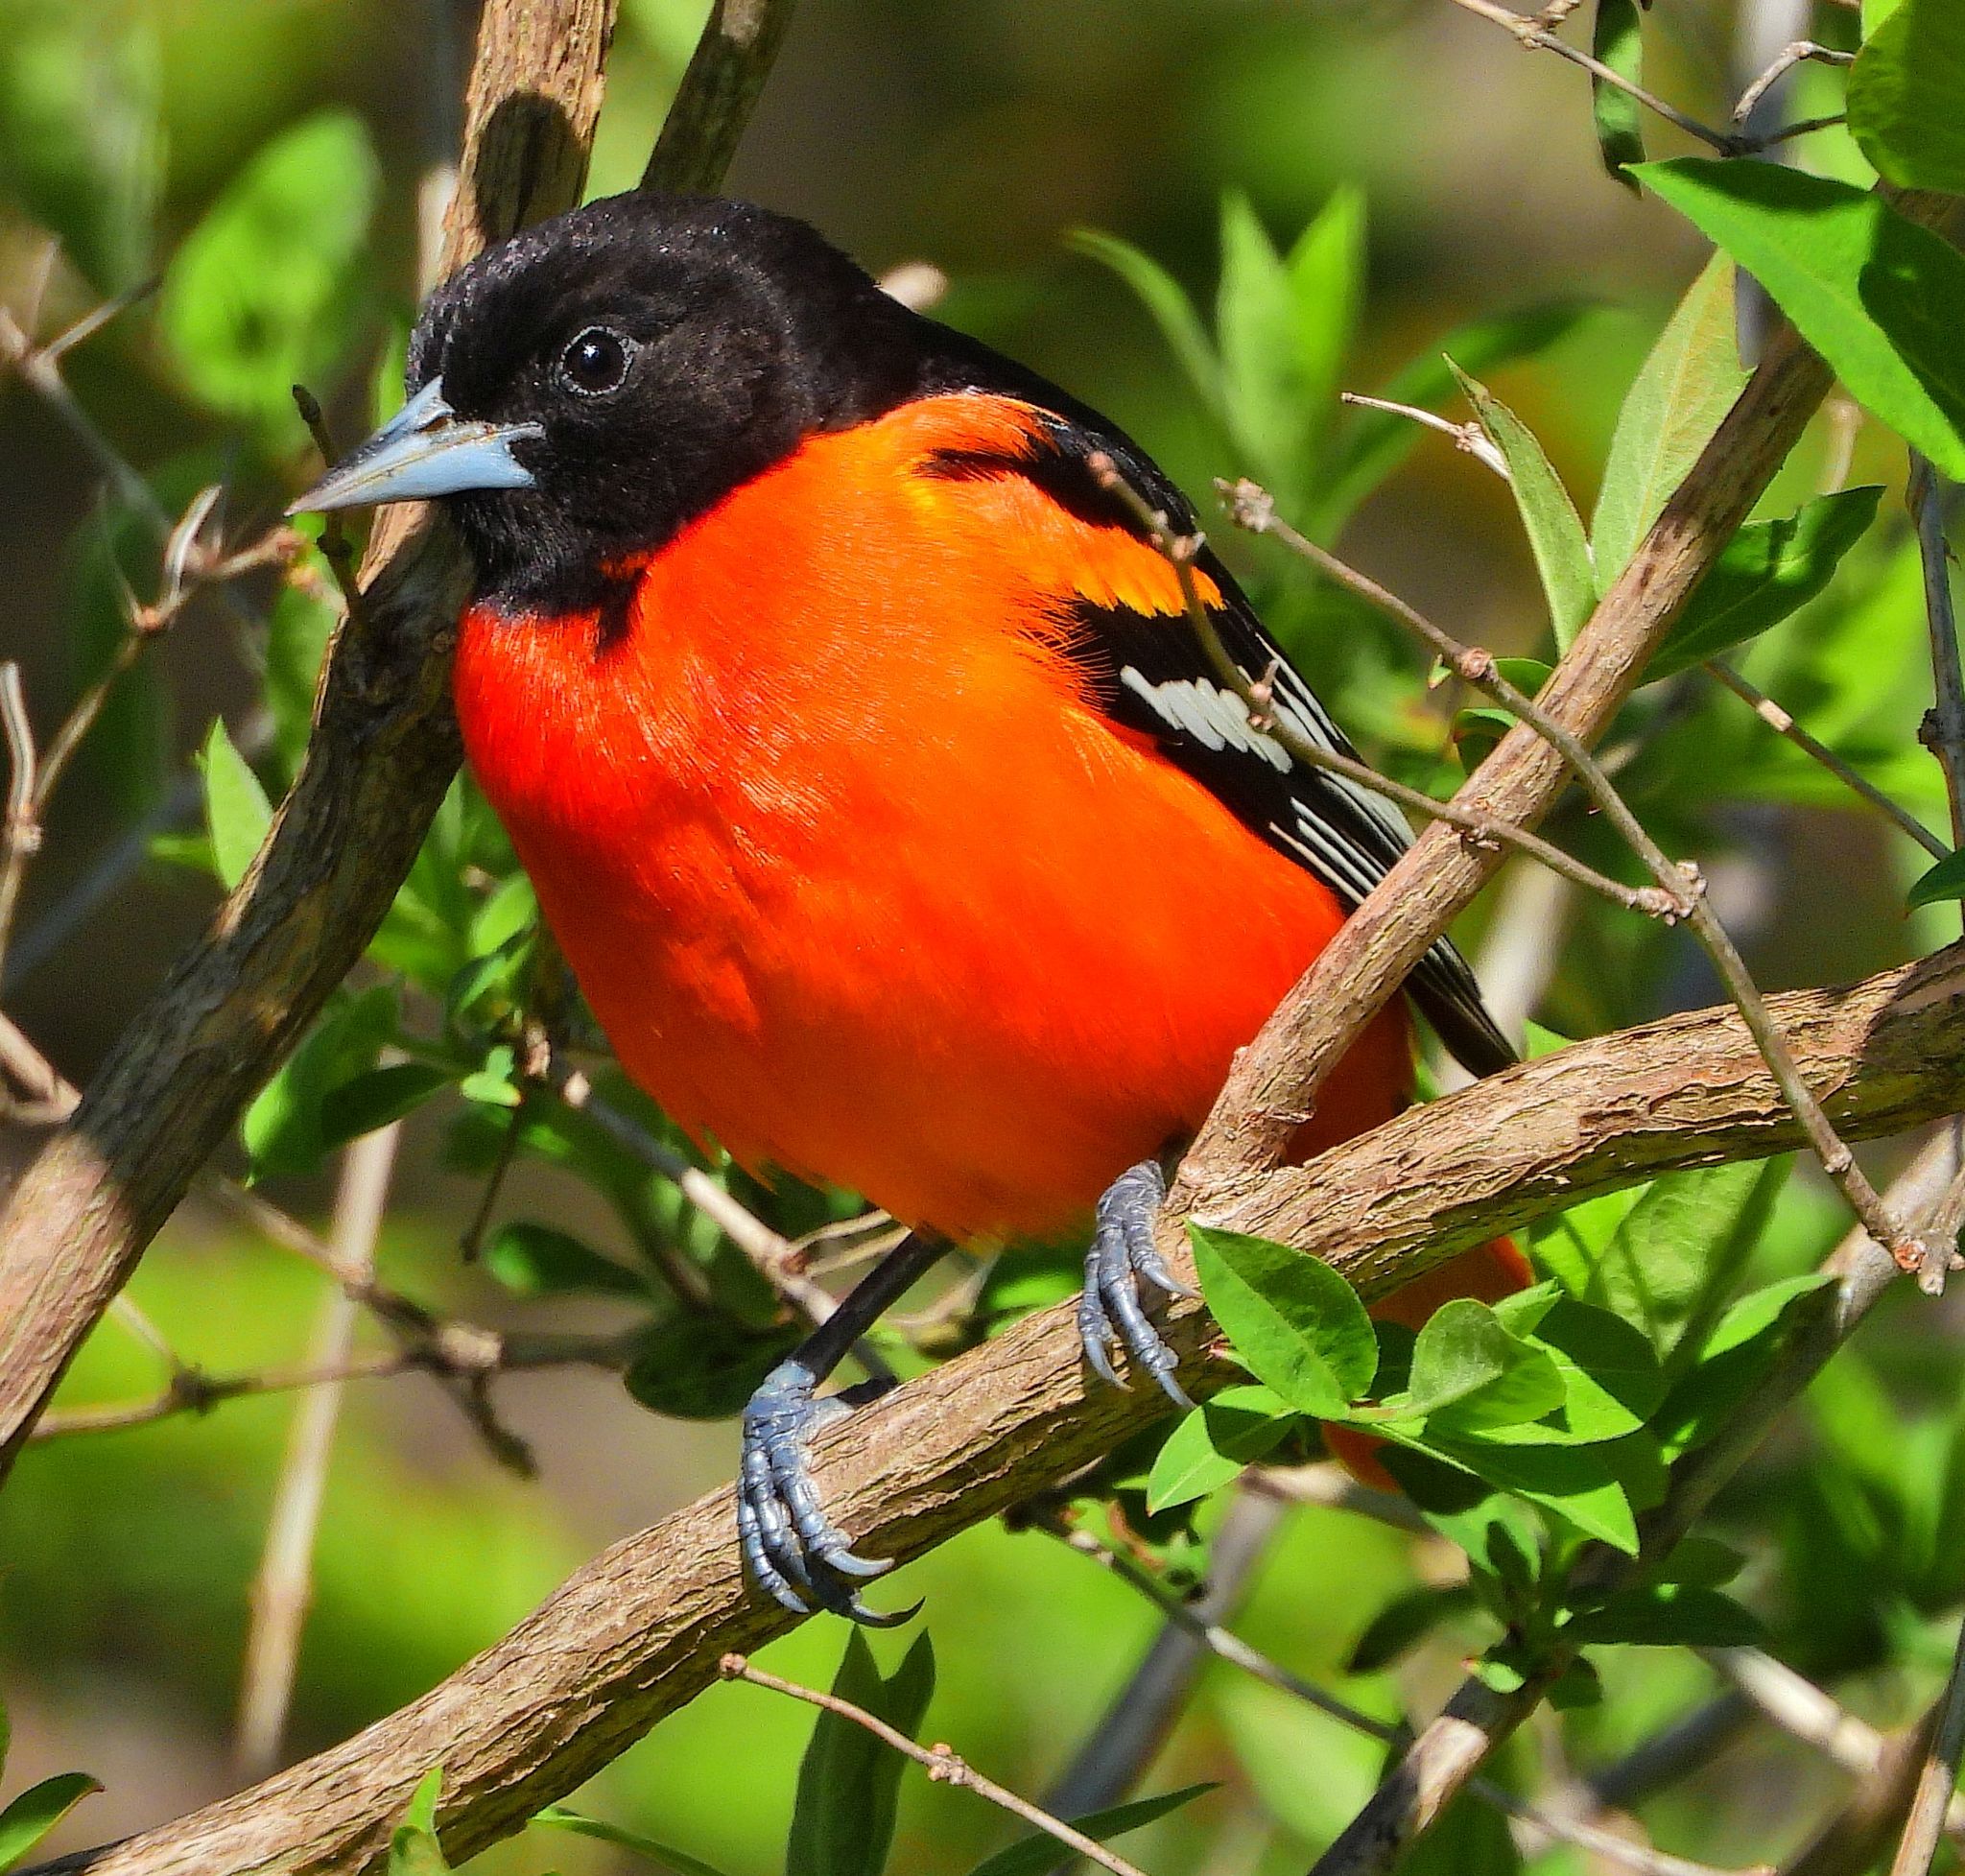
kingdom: Animalia
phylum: Chordata
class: Aves
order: Passeriformes
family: Icteridae
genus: Icterus
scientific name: Icterus galbula
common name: Baltimore oriole
